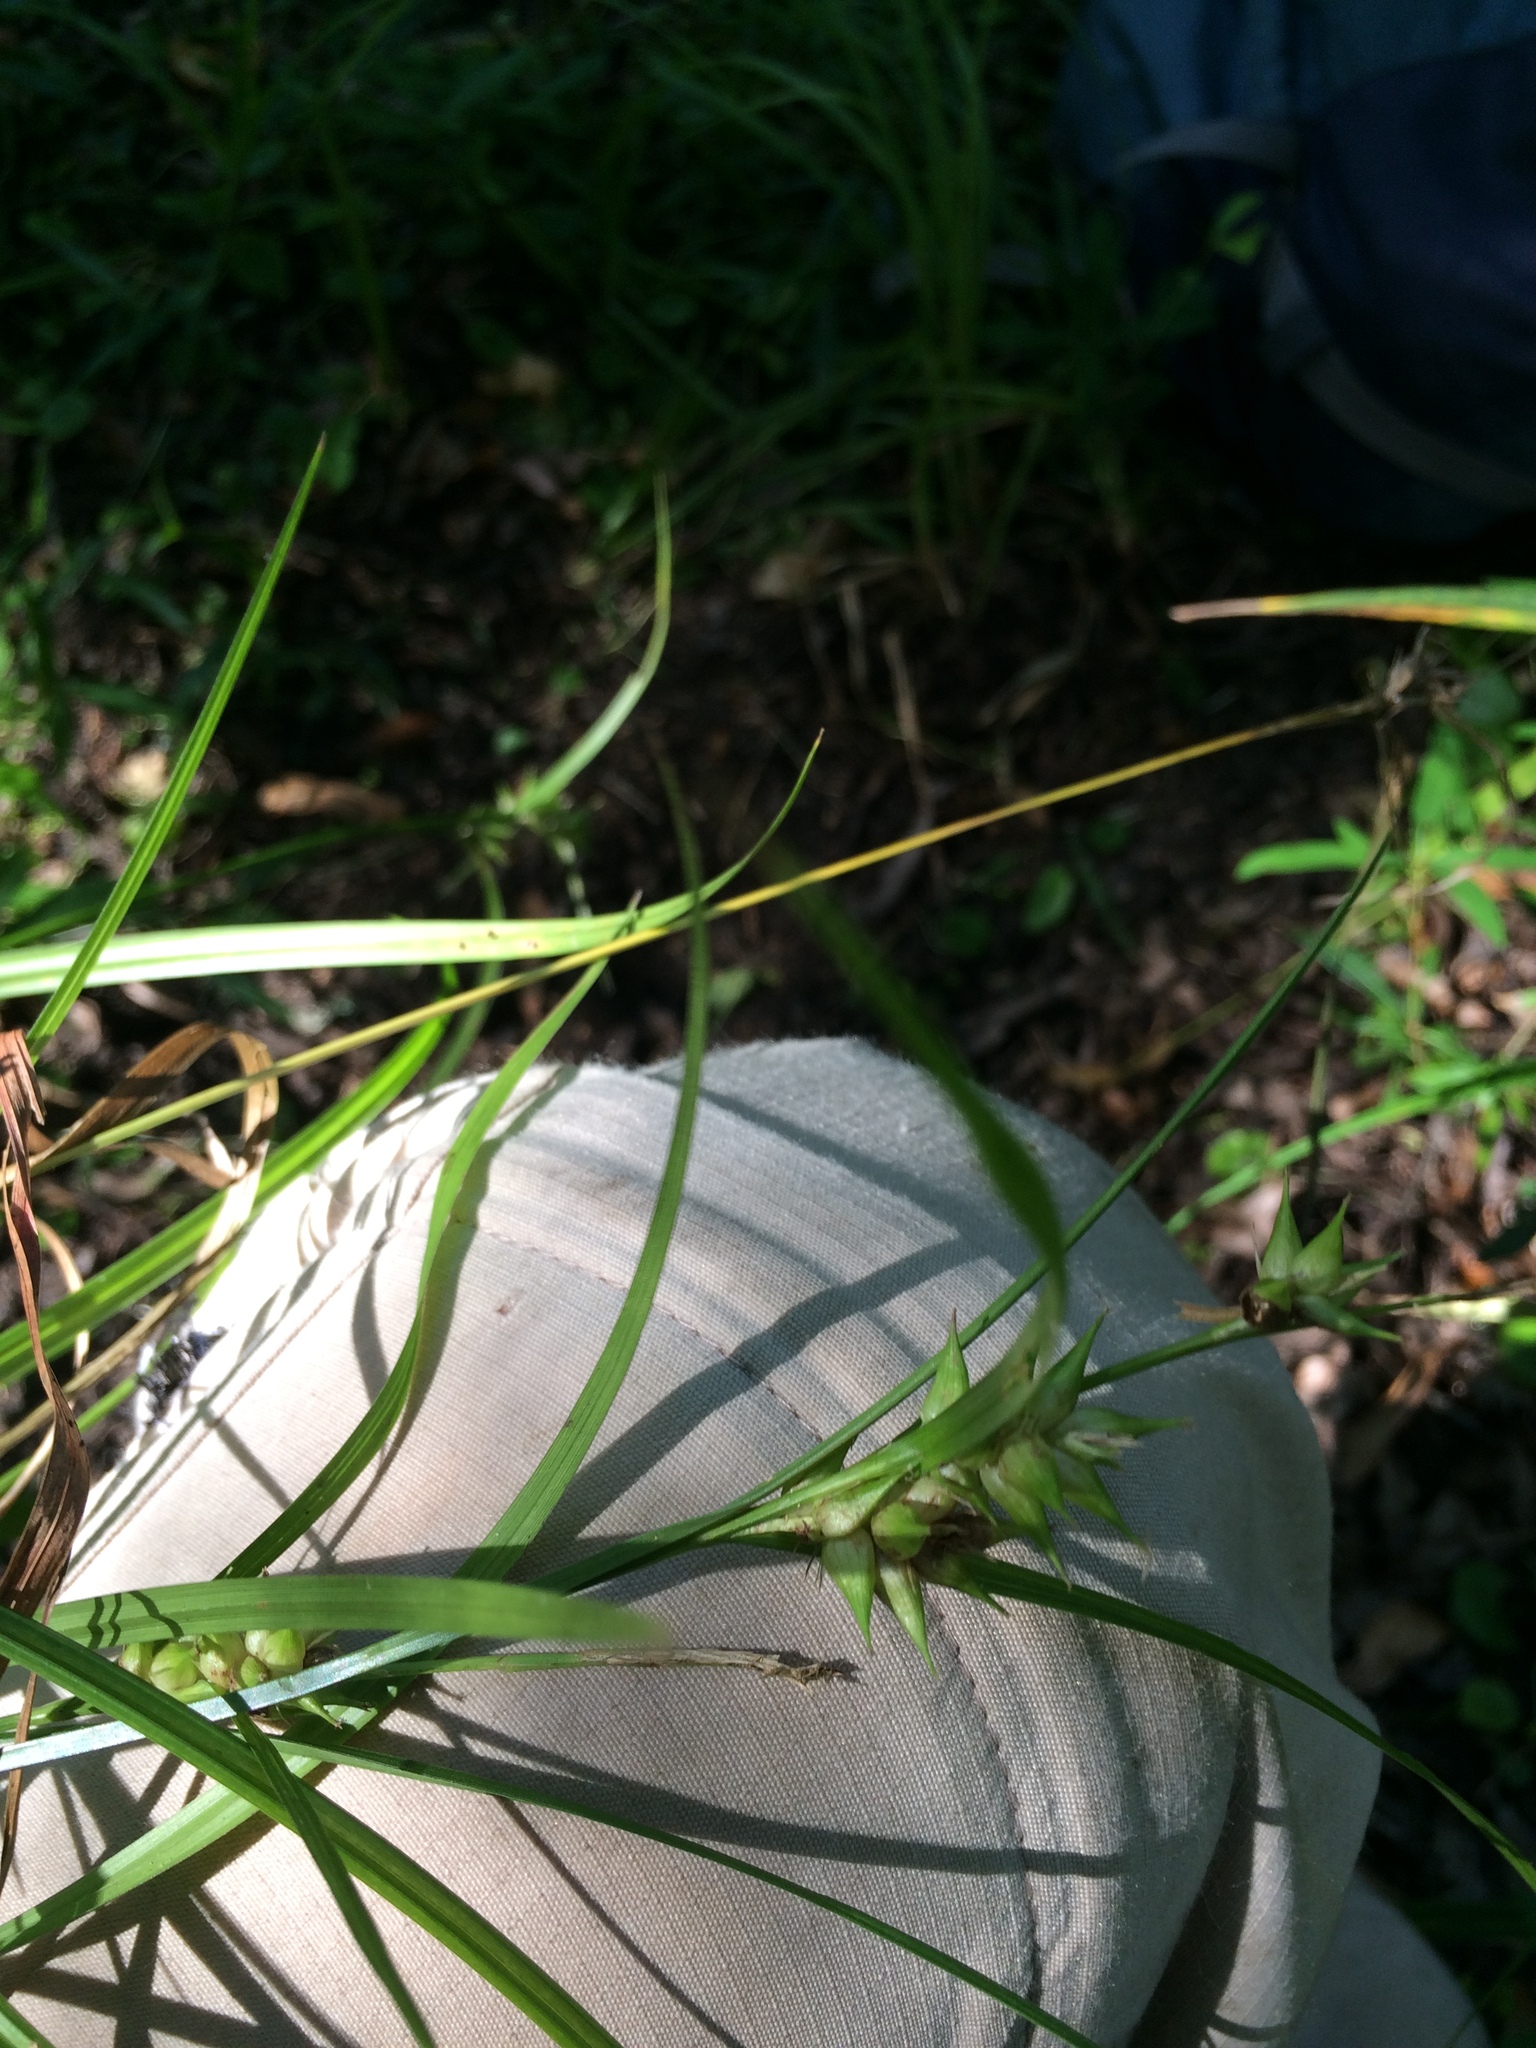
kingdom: Plantae
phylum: Tracheophyta
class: Liliopsida
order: Poales
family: Cyperaceae
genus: Carex
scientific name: Carex intumescens
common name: Greater bladder sedge
